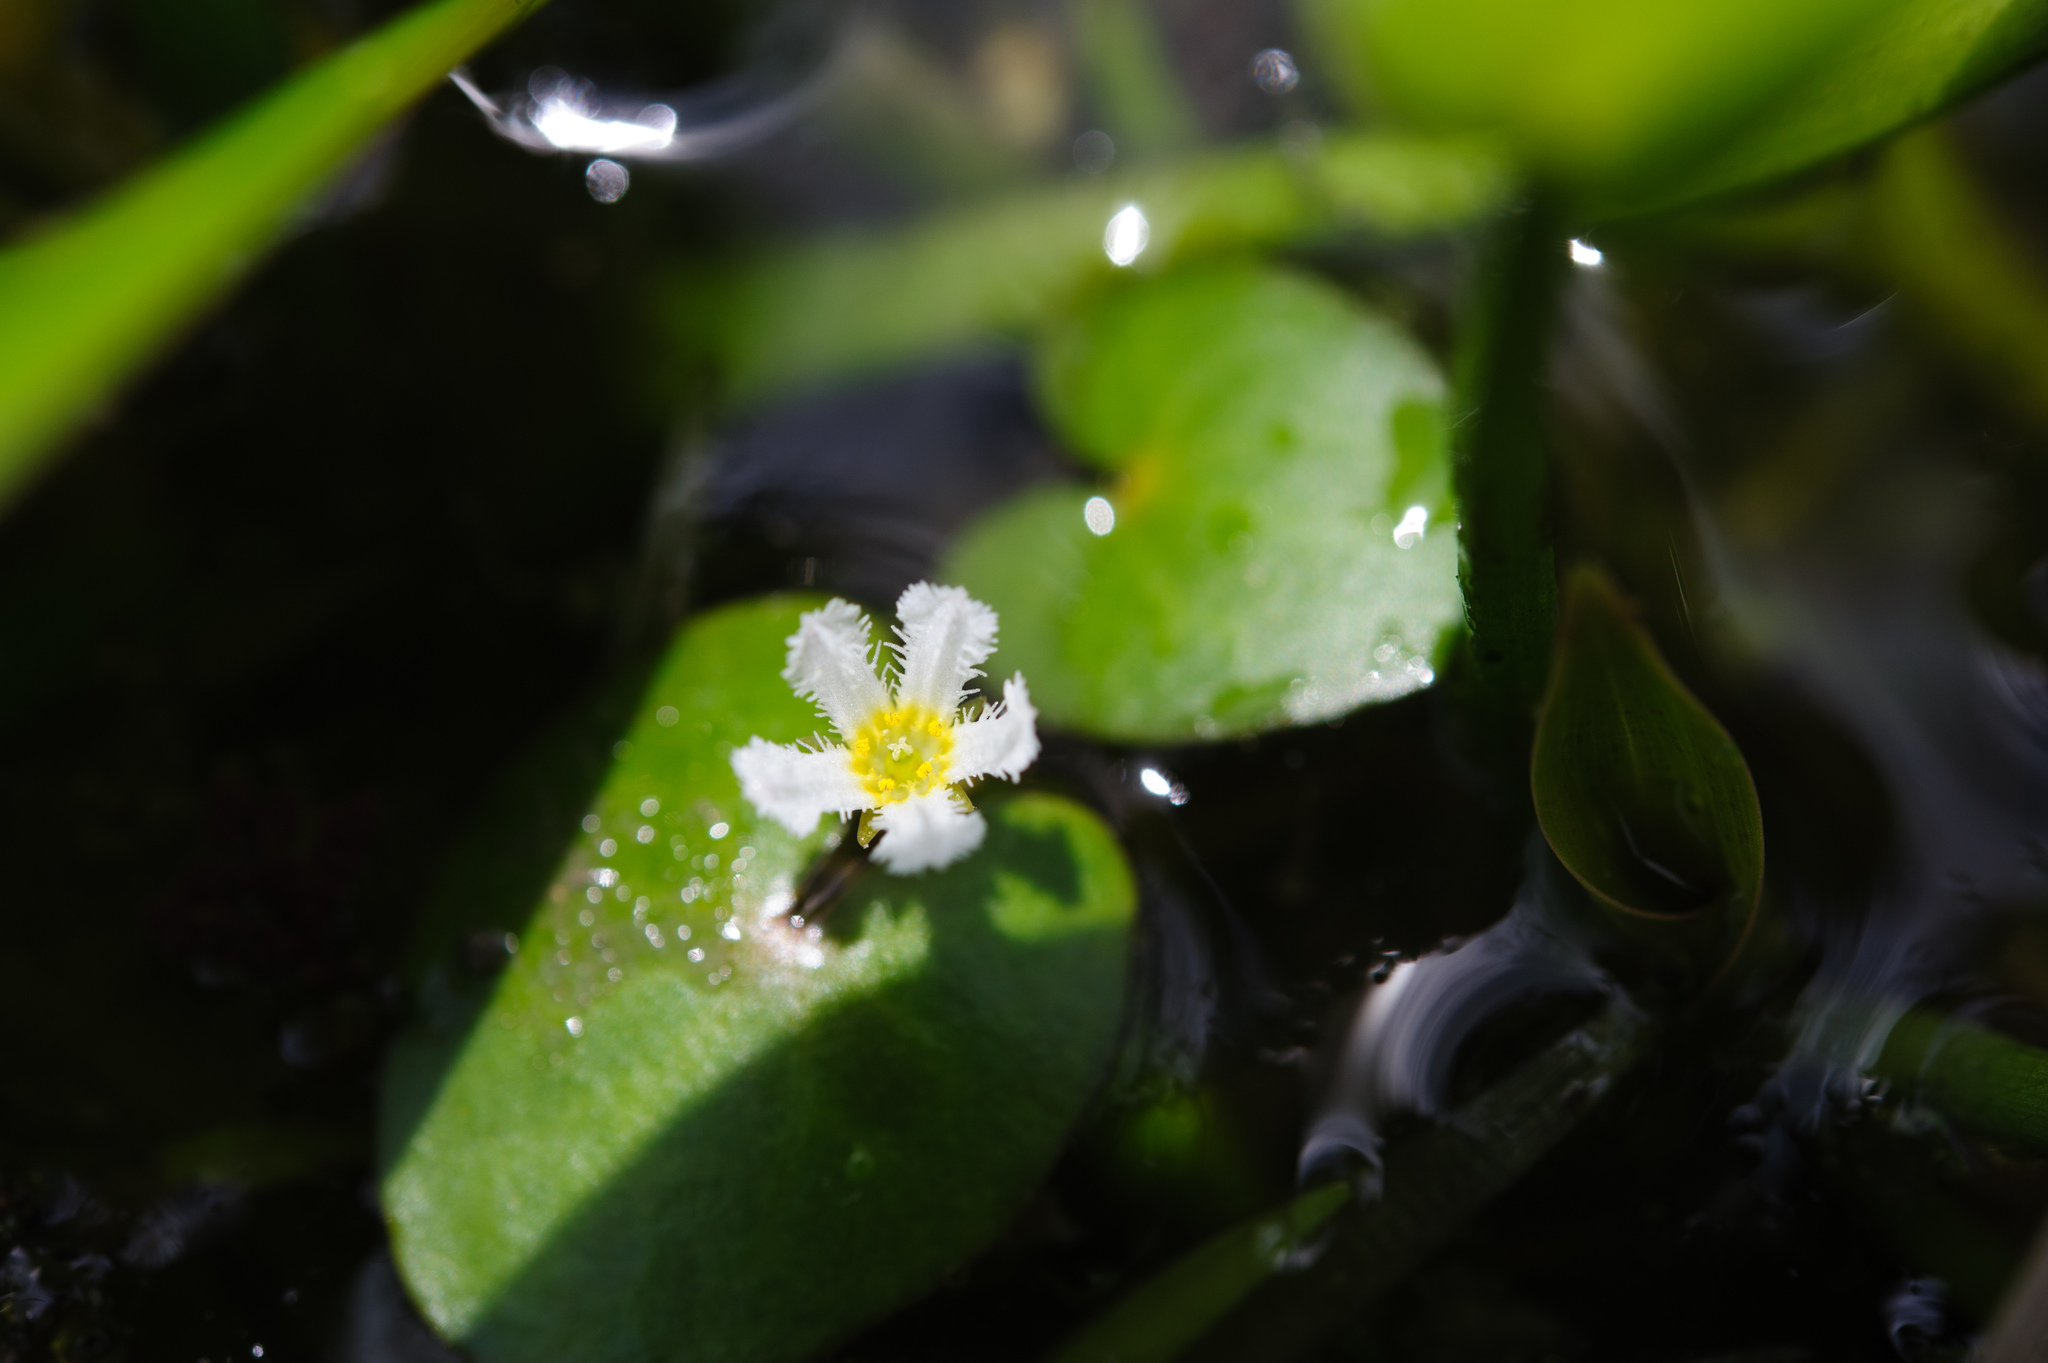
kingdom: Plantae
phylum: Tracheophyta
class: Magnoliopsida
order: Asterales
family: Menyanthaceae
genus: Nymphoides
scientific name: Nymphoides coreana
